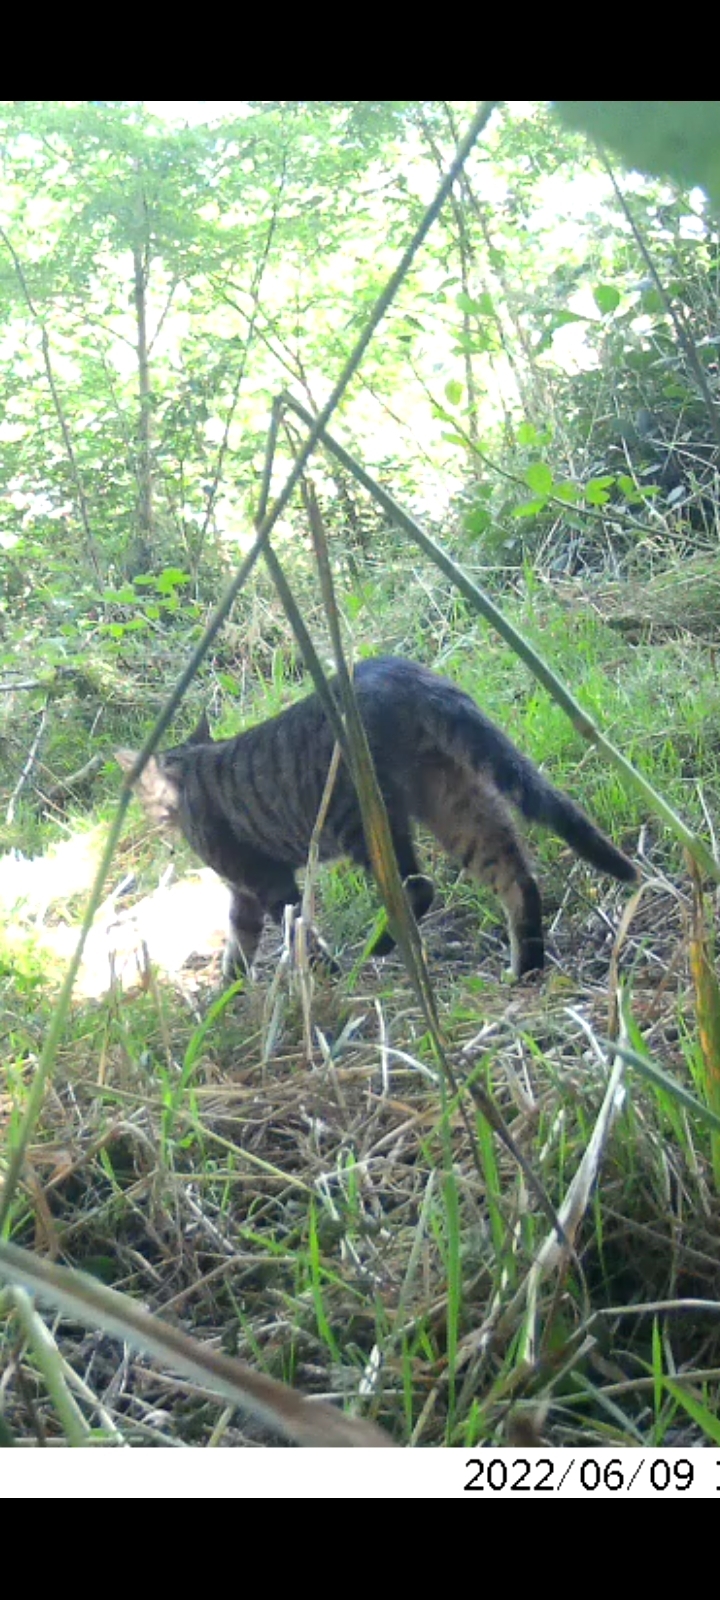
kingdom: Animalia
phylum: Chordata
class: Mammalia
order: Carnivora
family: Felidae
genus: Felis
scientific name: Felis catus
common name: Domestic cat
